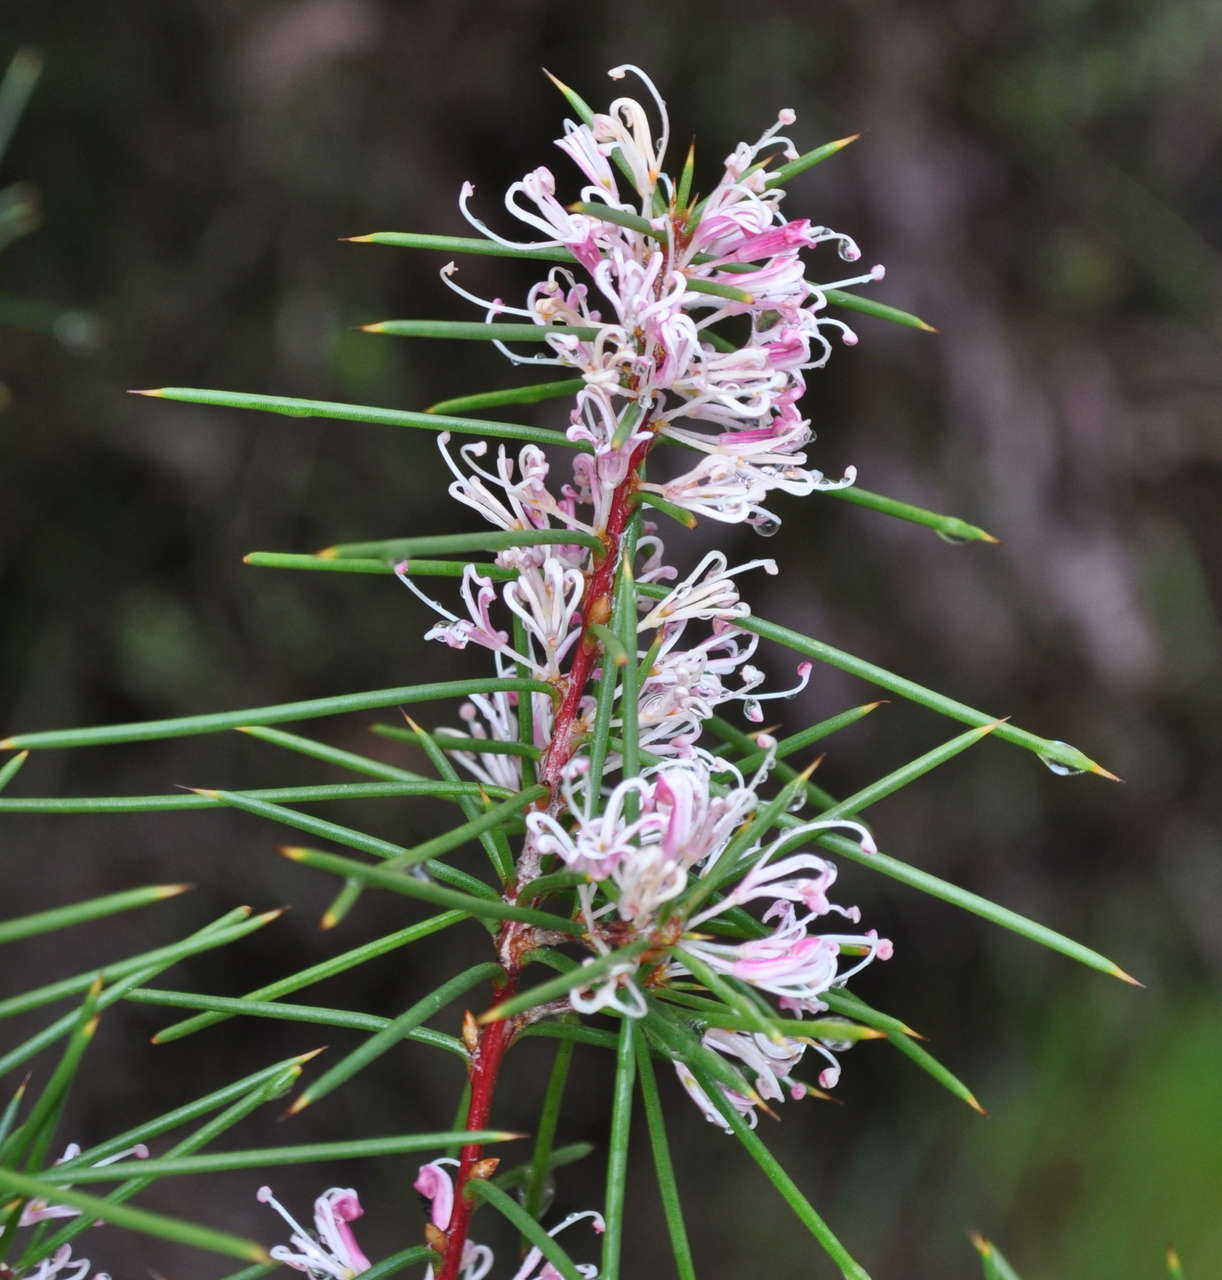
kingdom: Plantae
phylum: Tracheophyta
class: Magnoliopsida
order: Proteales
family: Proteaceae
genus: Hakea
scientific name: Hakea decurrens
